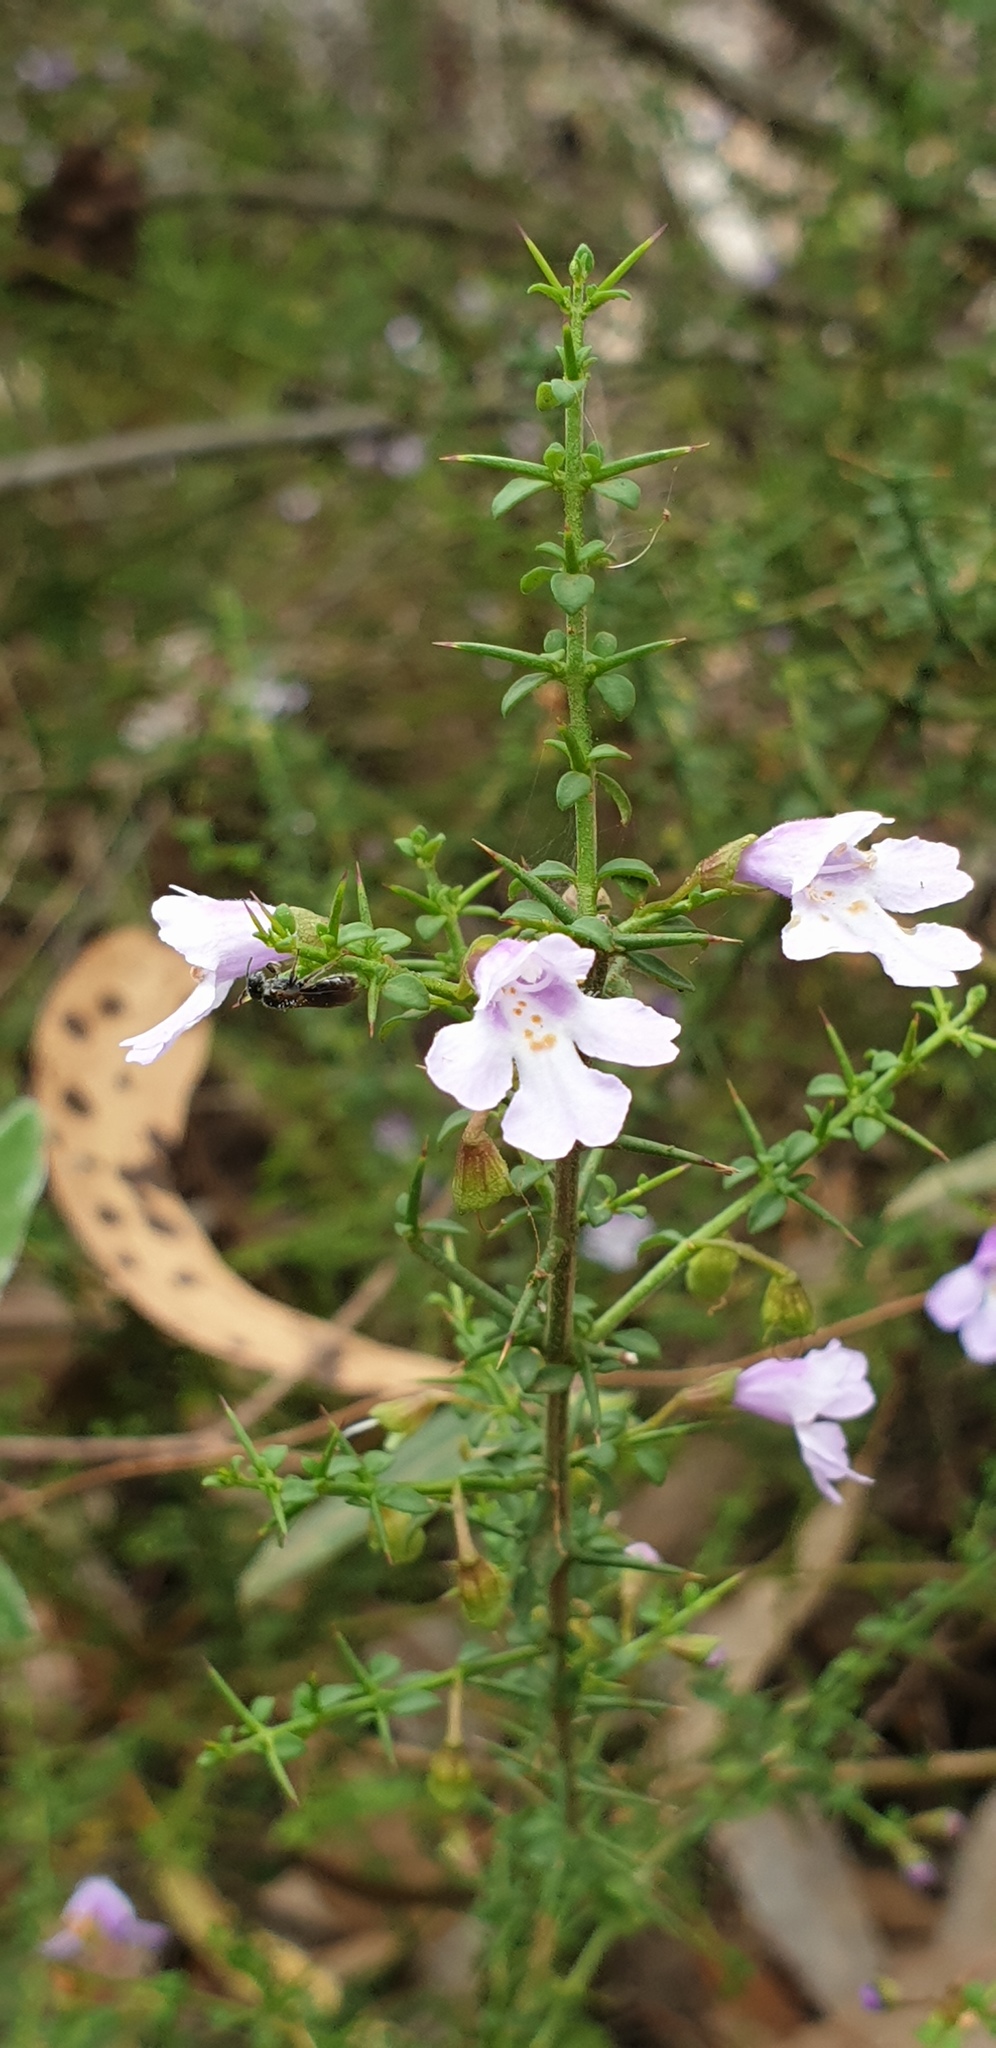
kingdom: Plantae
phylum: Tracheophyta
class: Magnoliopsida
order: Lamiales
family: Lamiaceae
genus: Prostanthera
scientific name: Prostanthera spinosa
